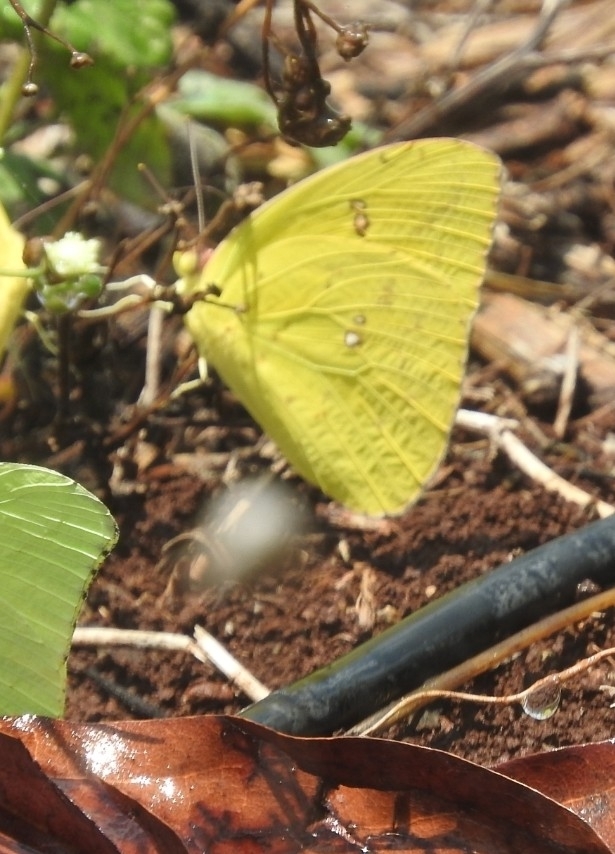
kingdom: Animalia
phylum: Arthropoda
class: Insecta
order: Lepidoptera
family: Pieridae
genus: Phoebis
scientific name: Phoebis marcellina
